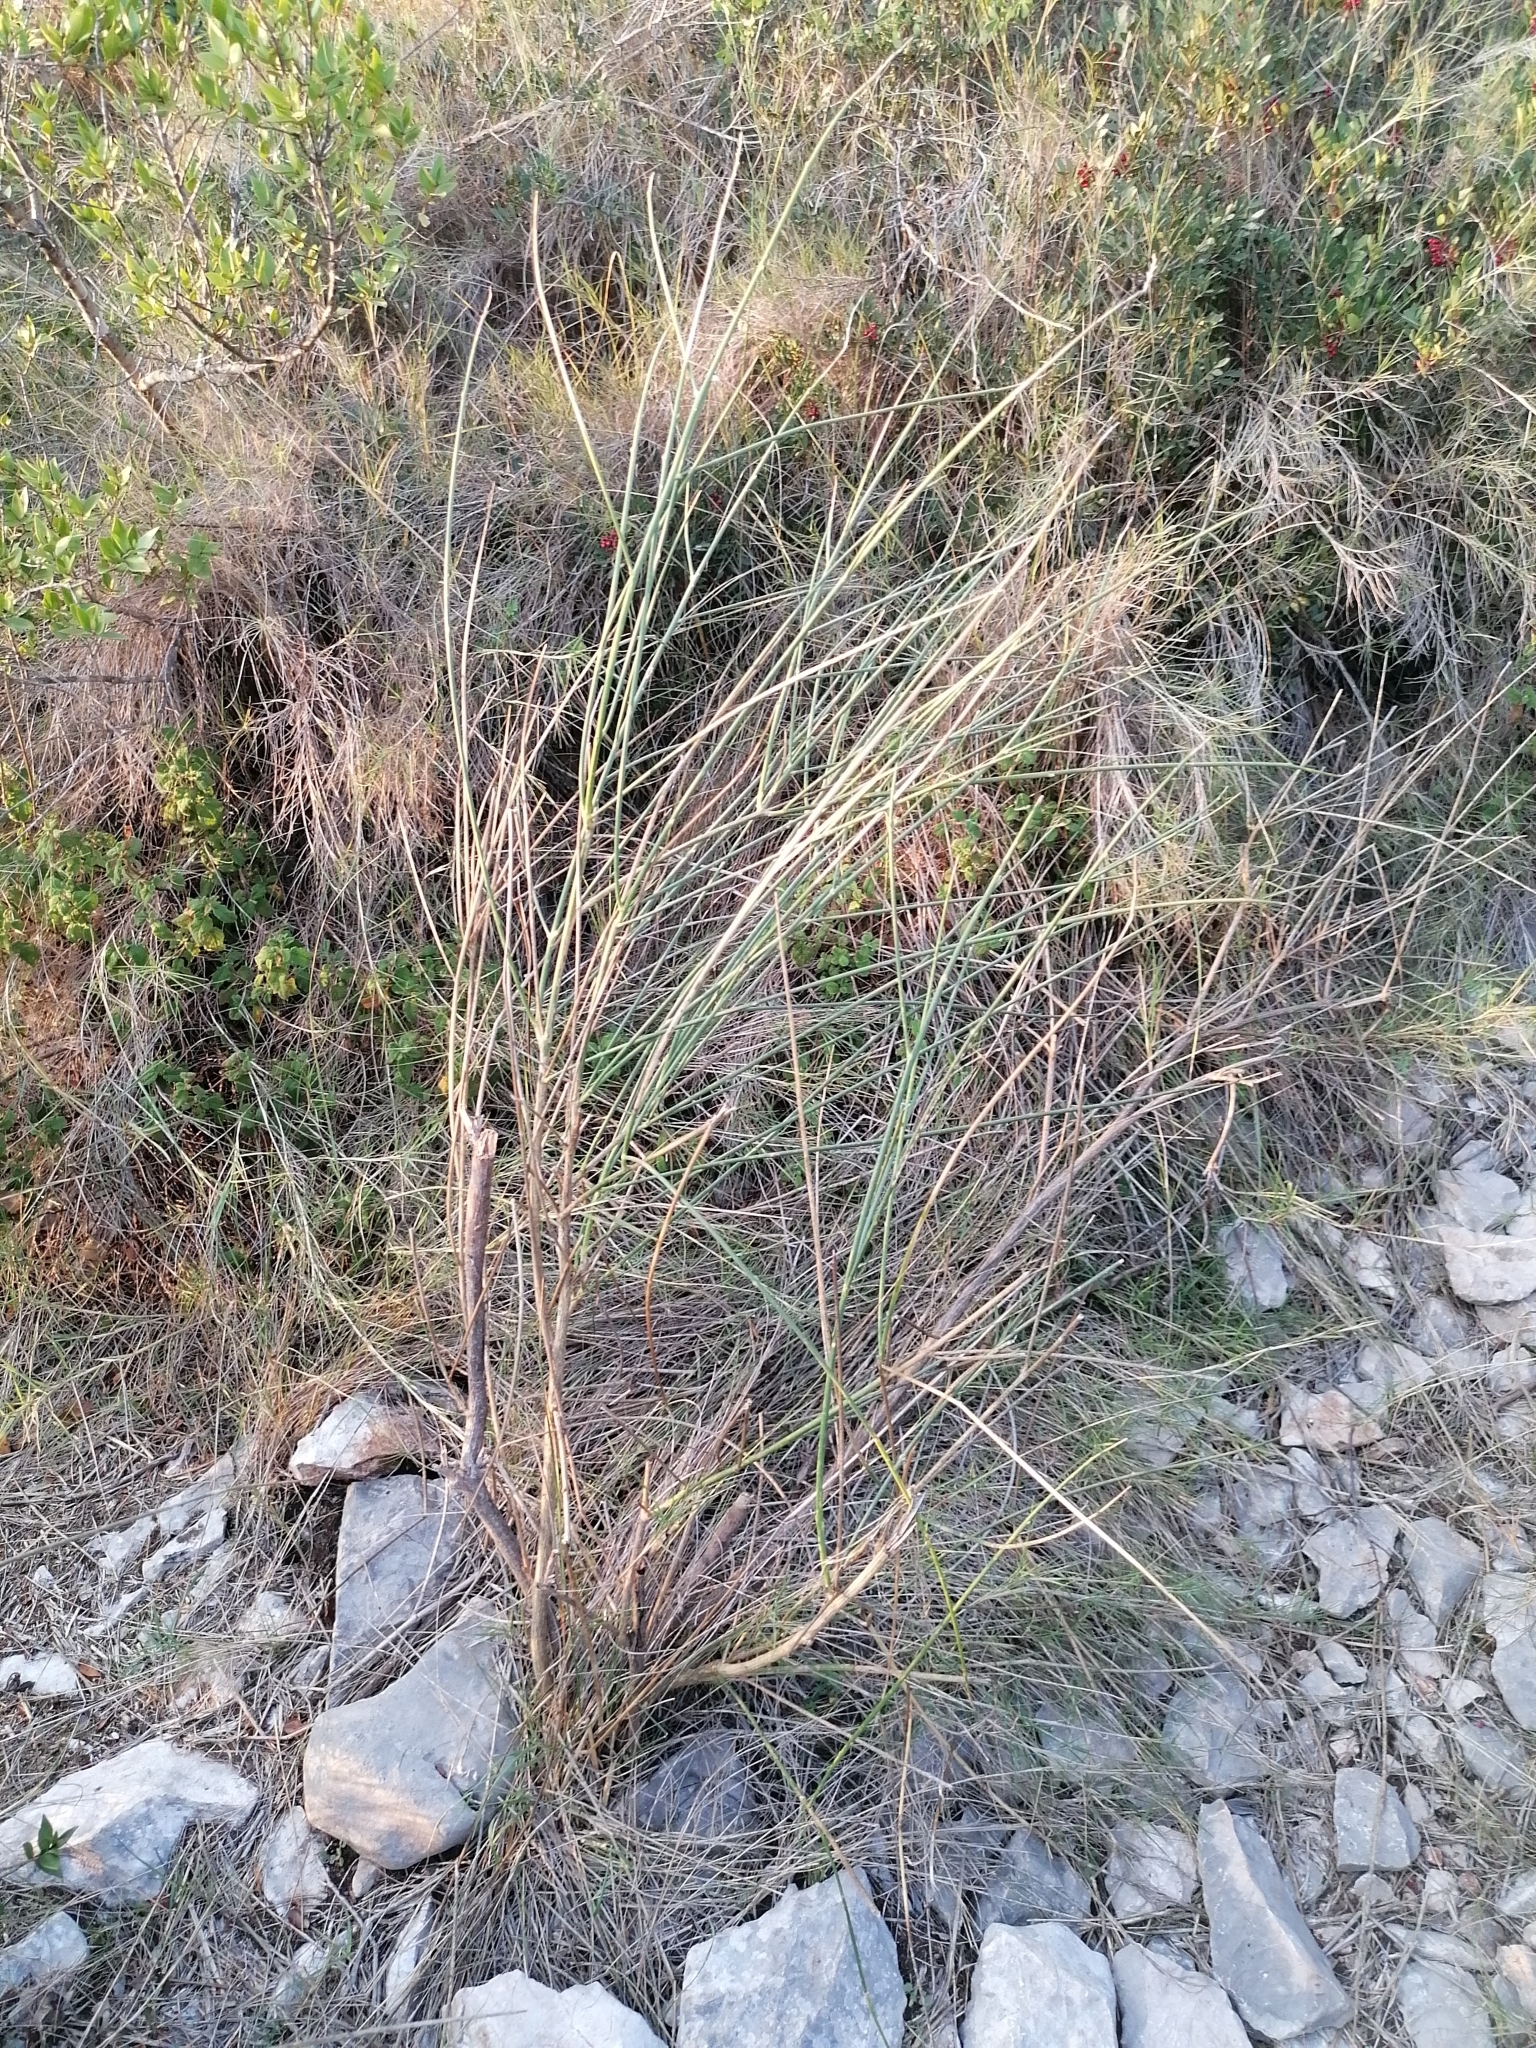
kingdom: Plantae
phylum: Tracheophyta
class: Magnoliopsida
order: Fabales
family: Fabaceae
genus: Spartium
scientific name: Spartium junceum
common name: Spanish broom
